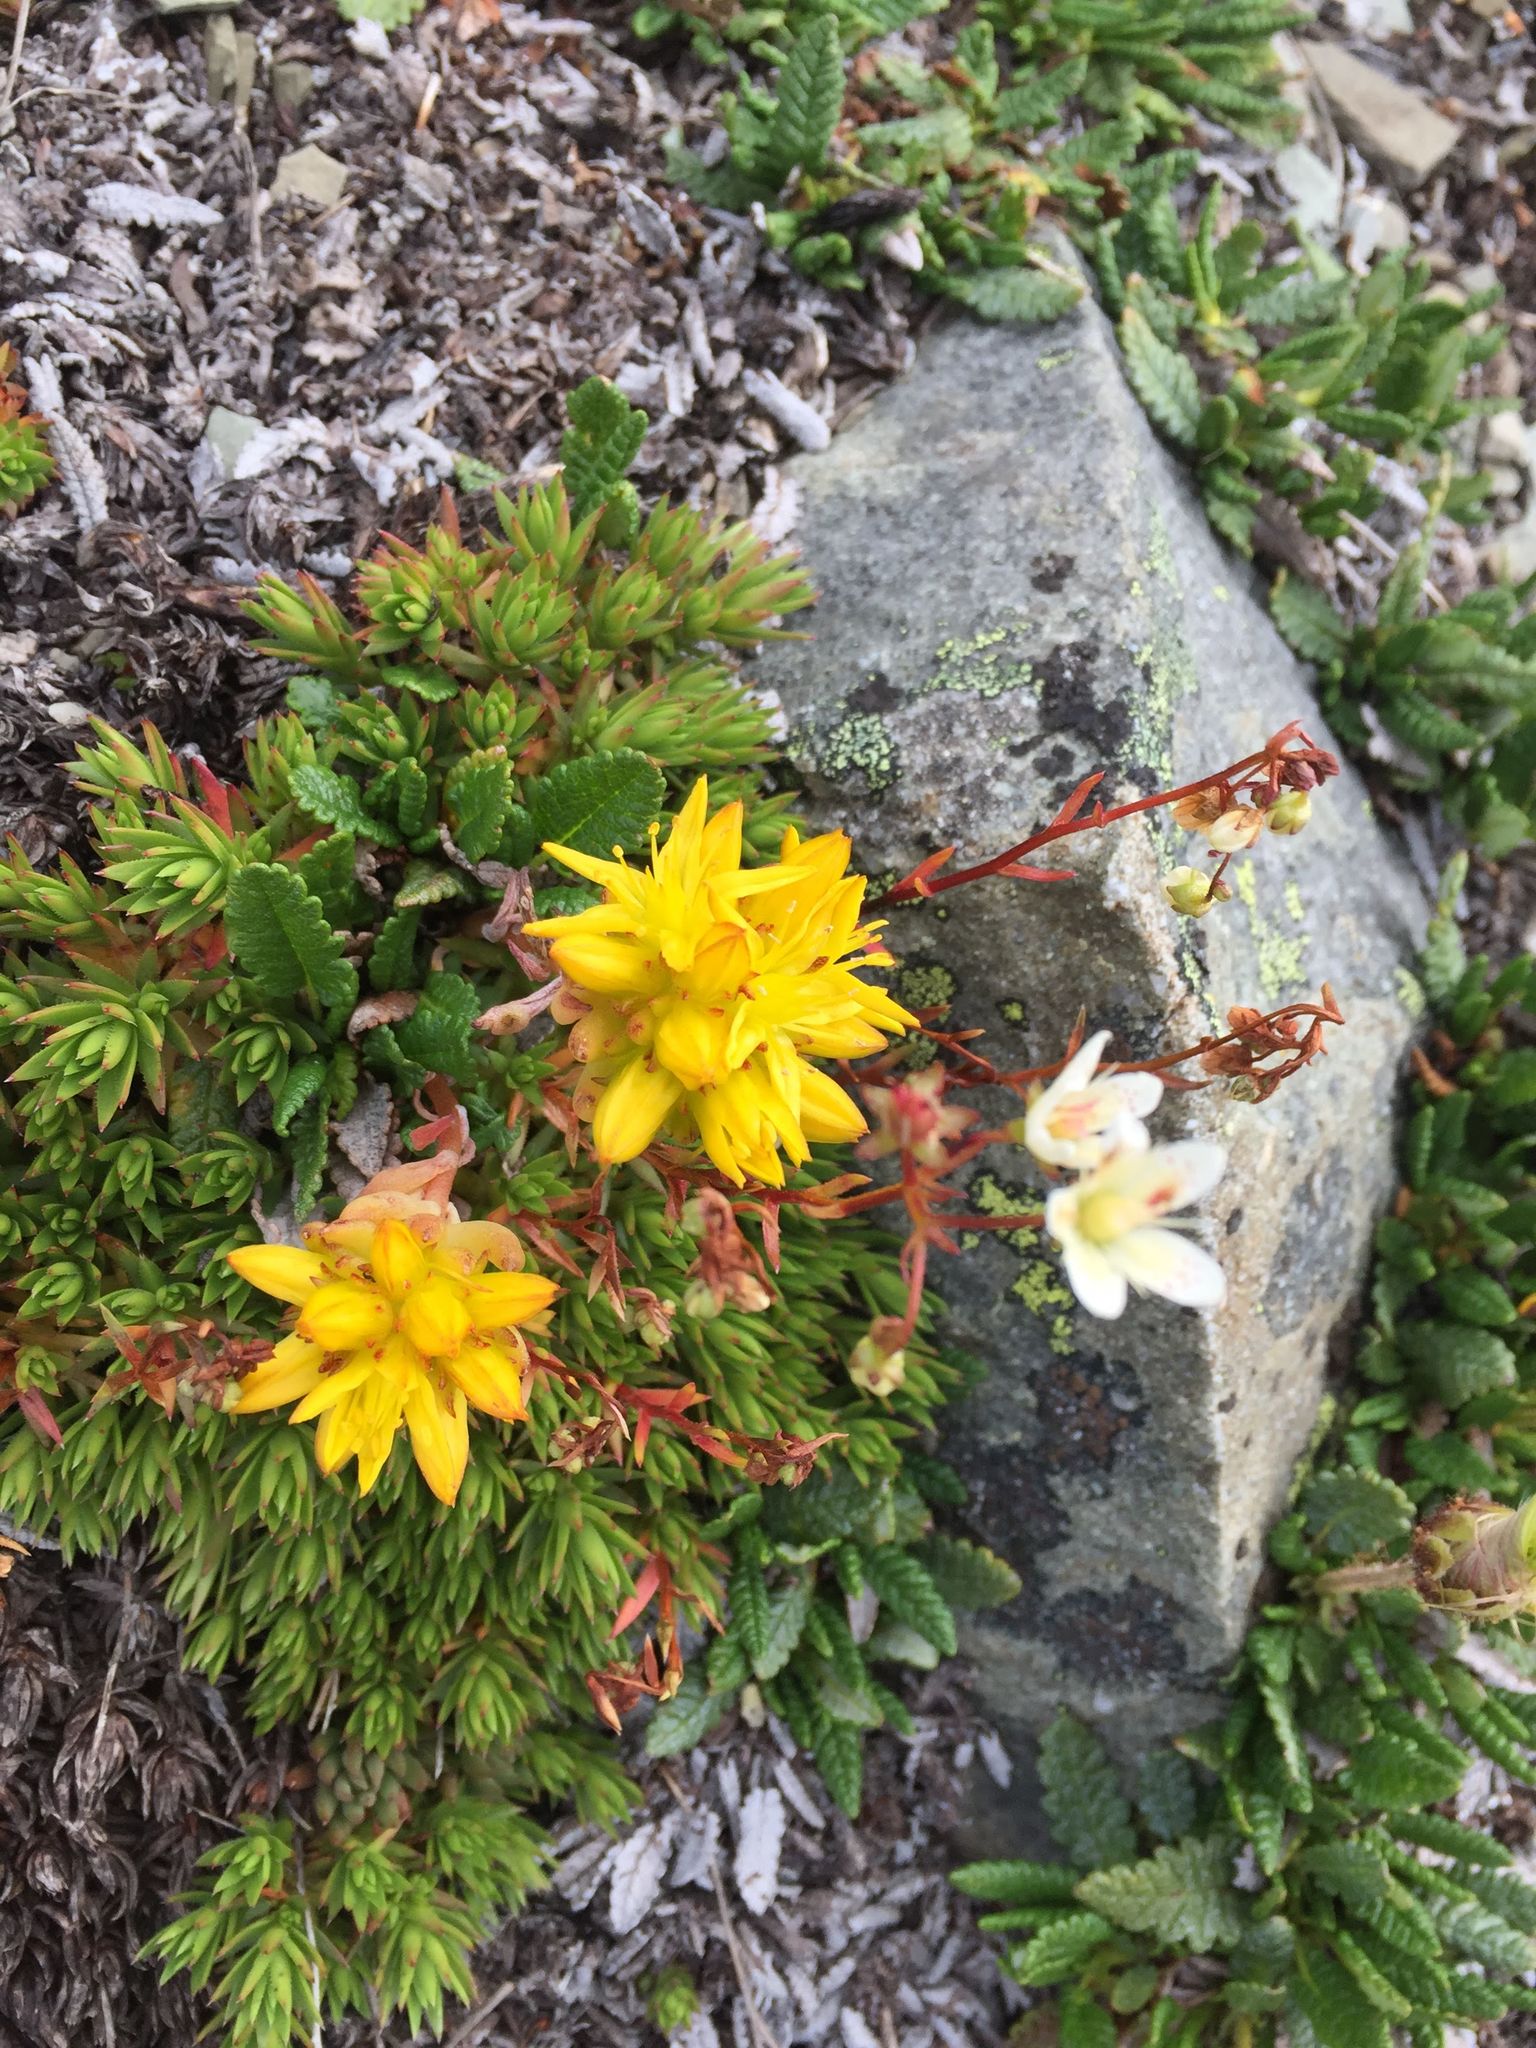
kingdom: Plantae
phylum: Tracheophyta
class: Magnoliopsida
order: Saxifragales
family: Saxifragaceae
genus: Saxifraga
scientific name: Saxifraga bronchialis
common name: Matted saxifrage
